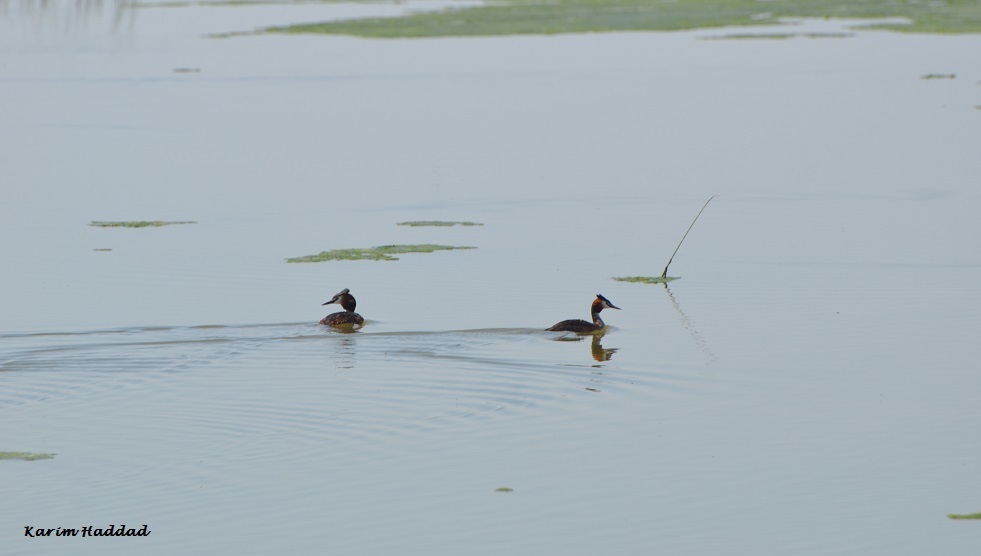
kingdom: Animalia
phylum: Chordata
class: Aves
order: Podicipediformes
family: Podicipedidae
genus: Podiceps
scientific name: Podiceps cristatus
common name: Great crested grebe
